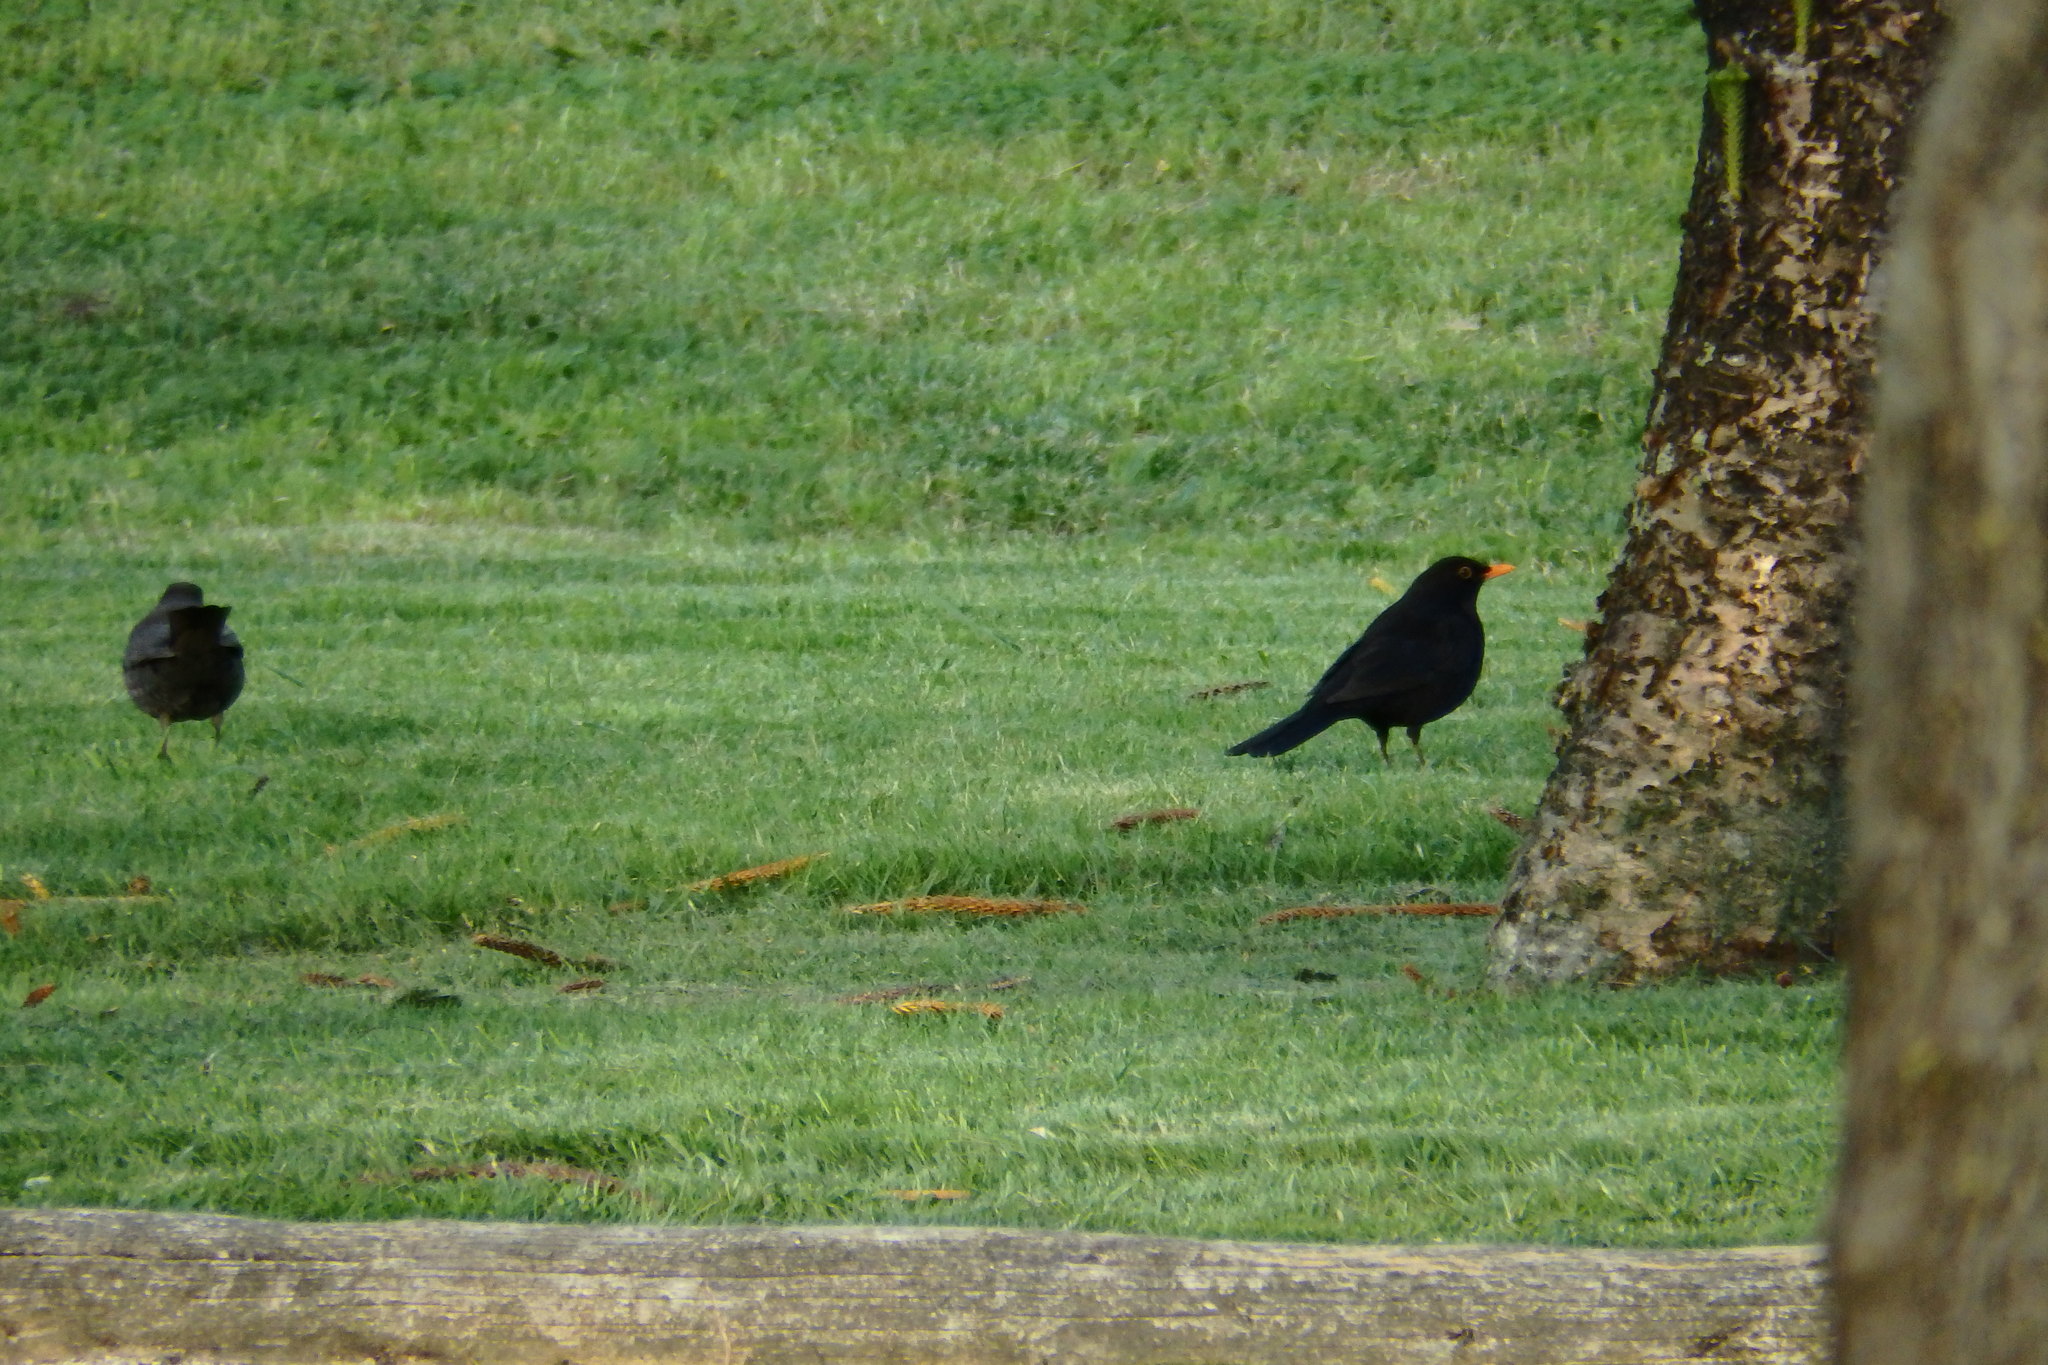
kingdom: Animalia
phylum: Chordata
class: Aves
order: Passeriformes
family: Turdidae
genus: Turdus
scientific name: Turdus merula
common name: Common blackbird
